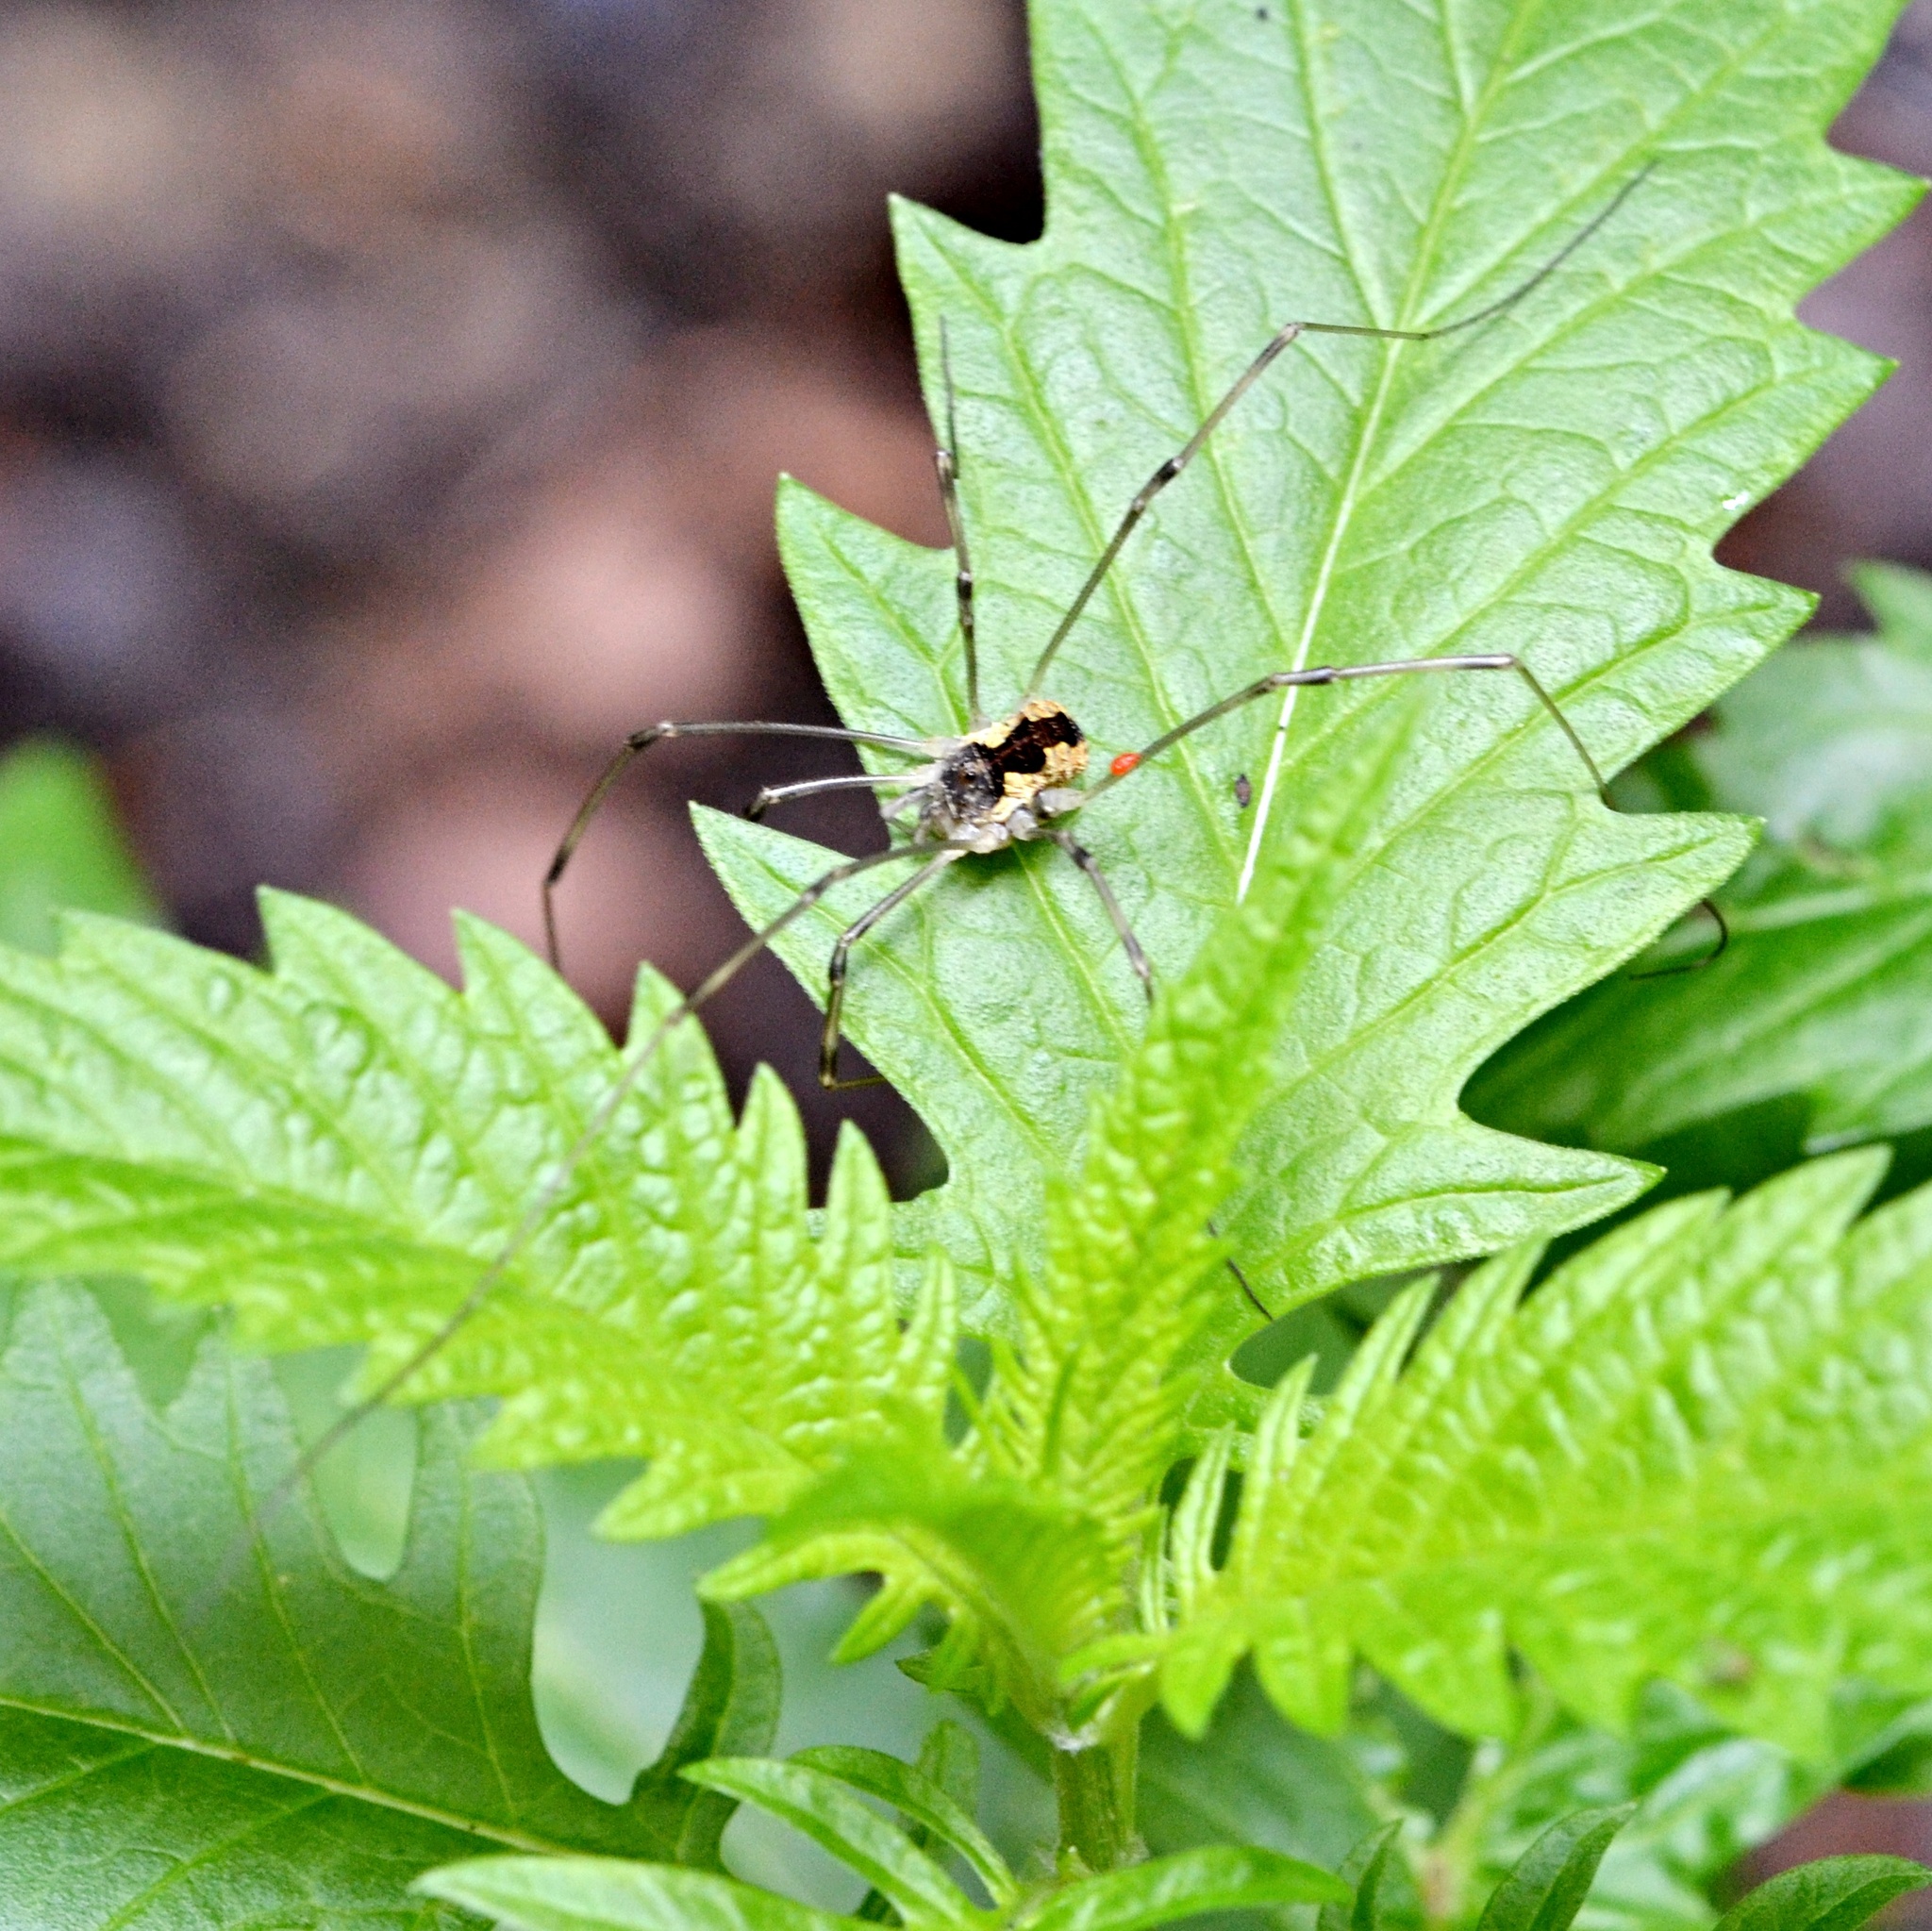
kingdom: Animalia
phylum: Arthropoda
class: Arachnida
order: Opiliones
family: Phalangiidae
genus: Mitopus
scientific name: Mitopus morio
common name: Saddleback harvestman
